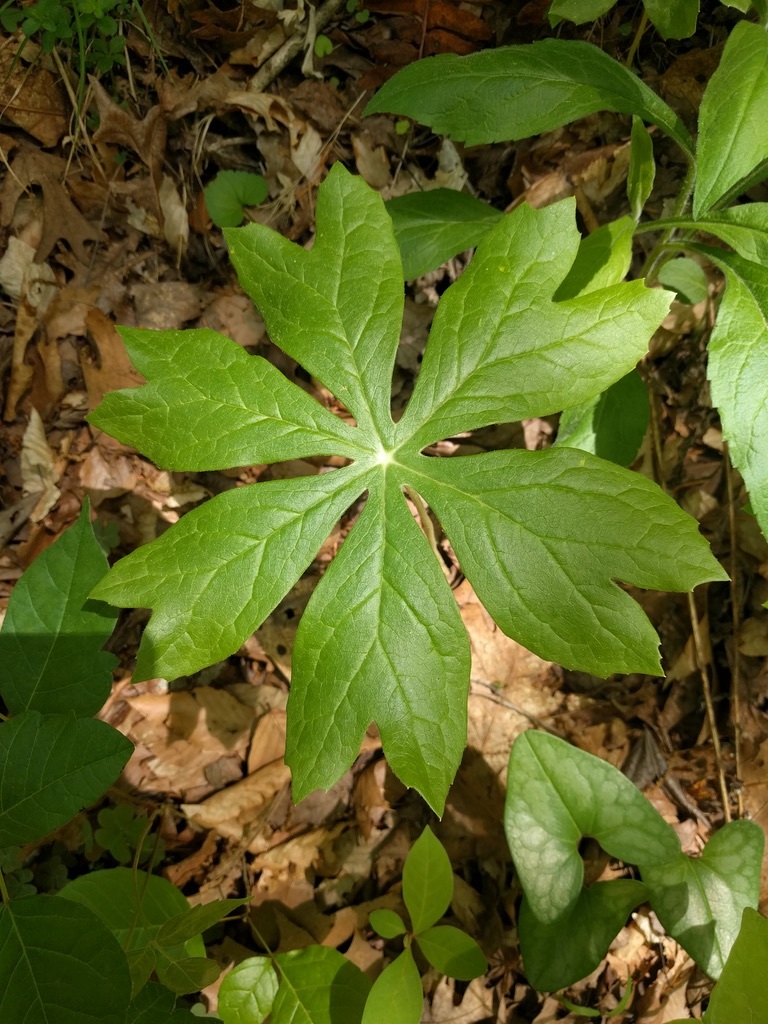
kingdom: Plantae
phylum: Tracheophyta
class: Magnoliopsida
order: Ranunculales
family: Berberidaceae
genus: Podophyllum
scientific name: Podophyllum peltatum
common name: Wild mandrake
